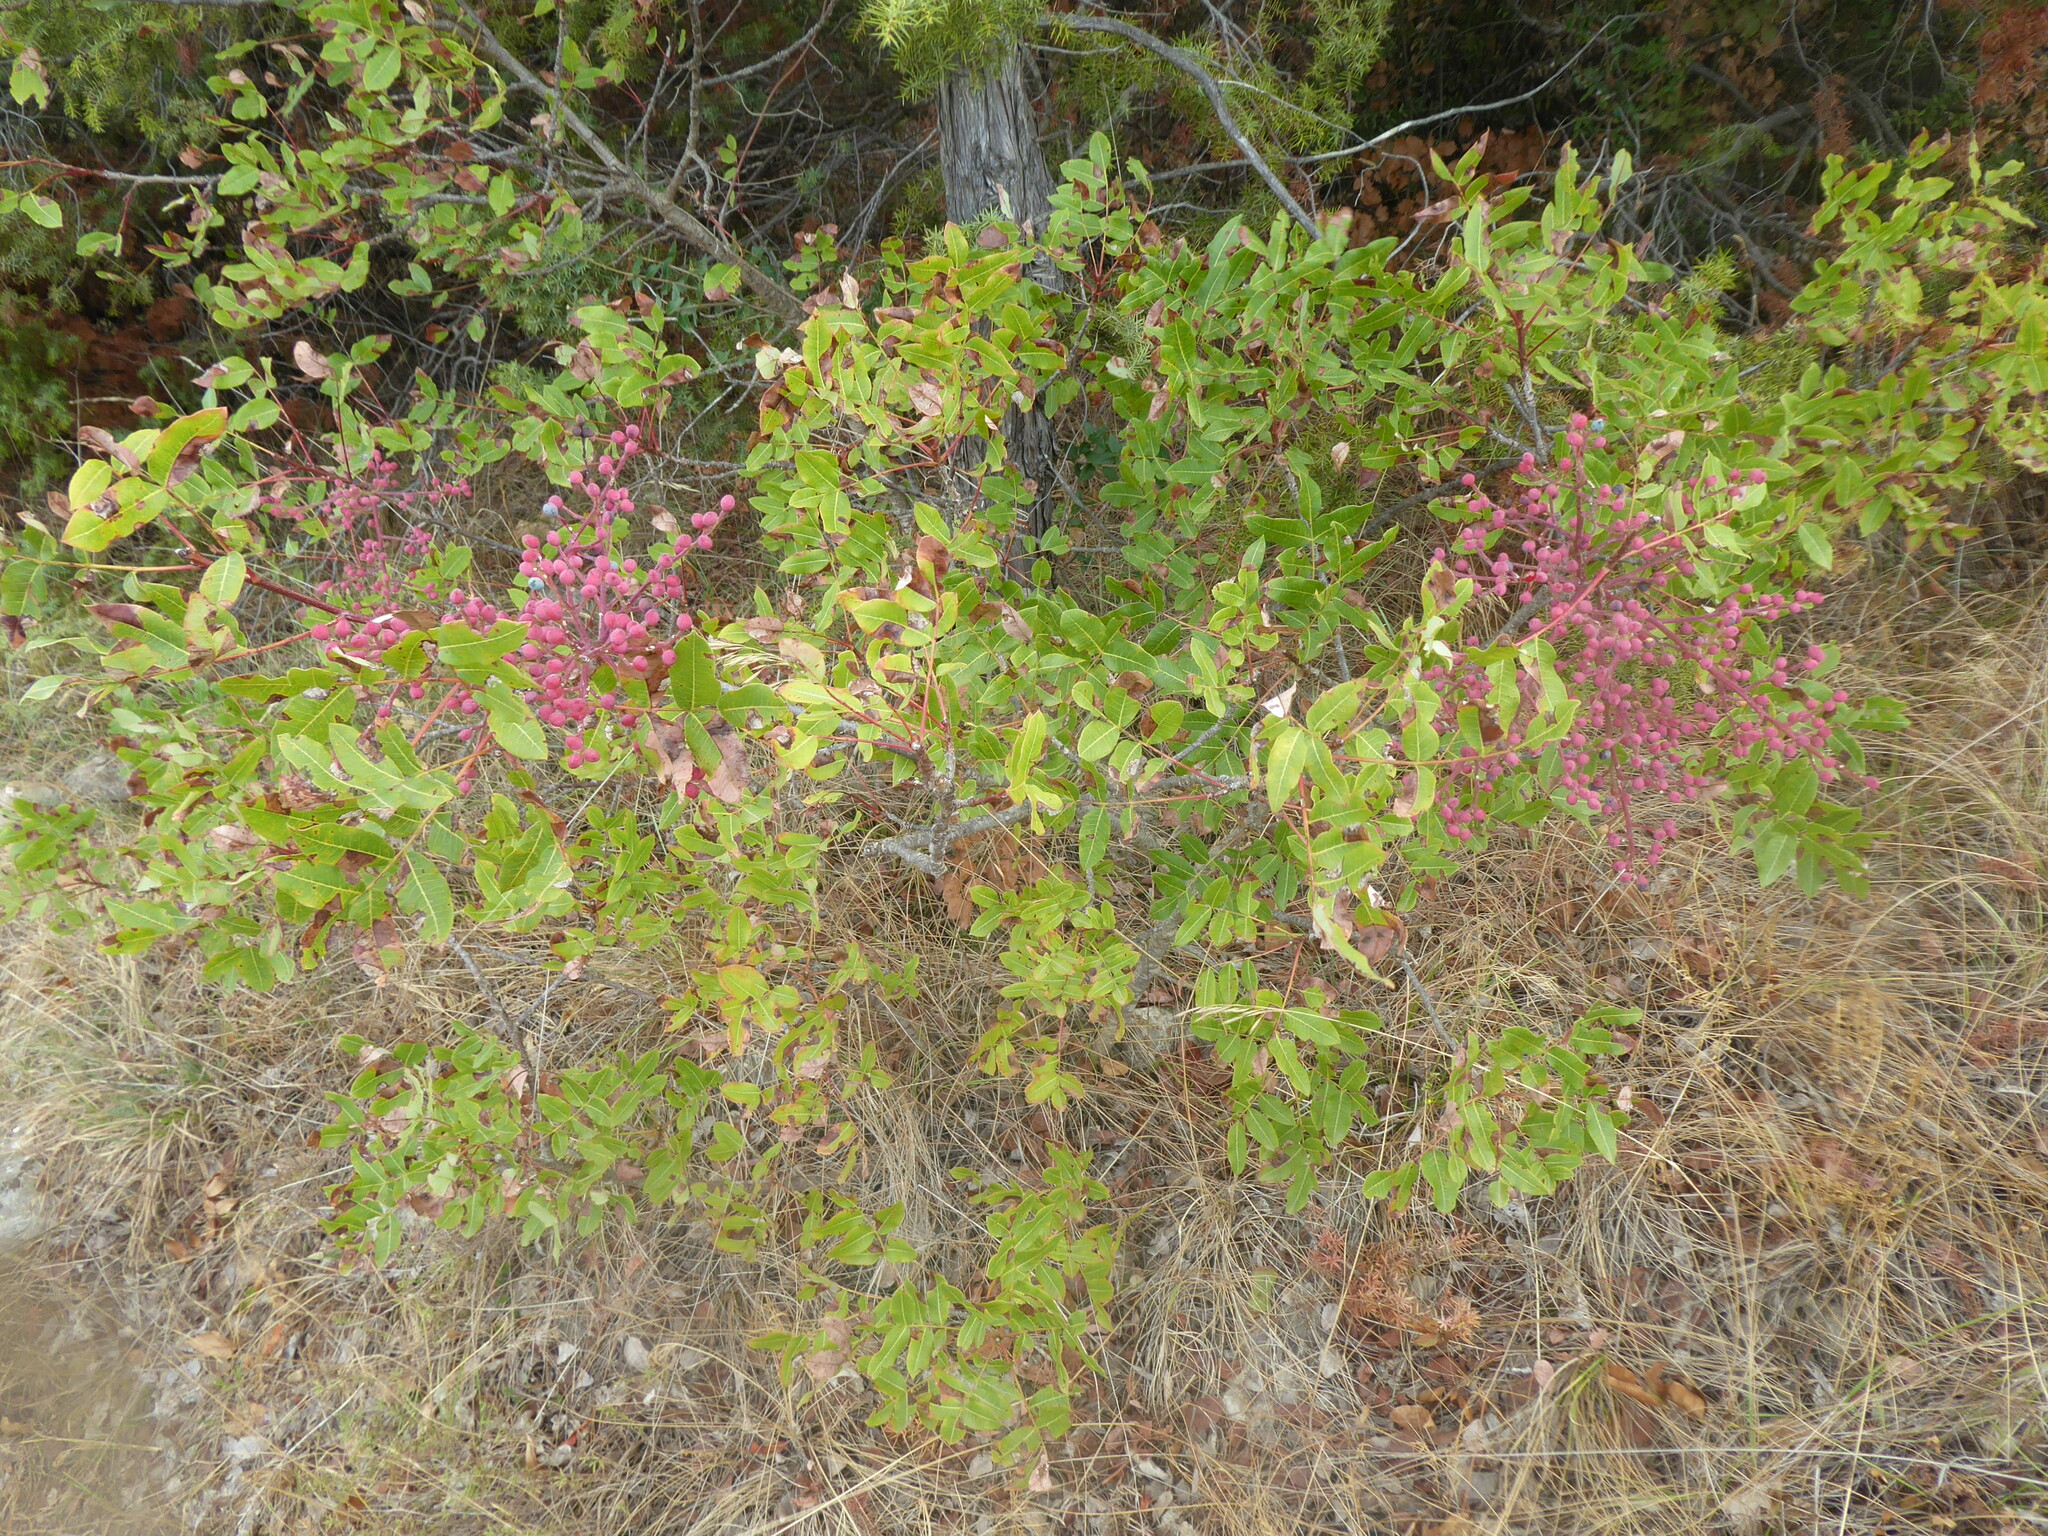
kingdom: Plantae
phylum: Tracheophyta
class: Magnoliopsida
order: Sapindales
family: Anacardiaceae
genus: Pistacia
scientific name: Pistacia terebinthus
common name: Terebinth
